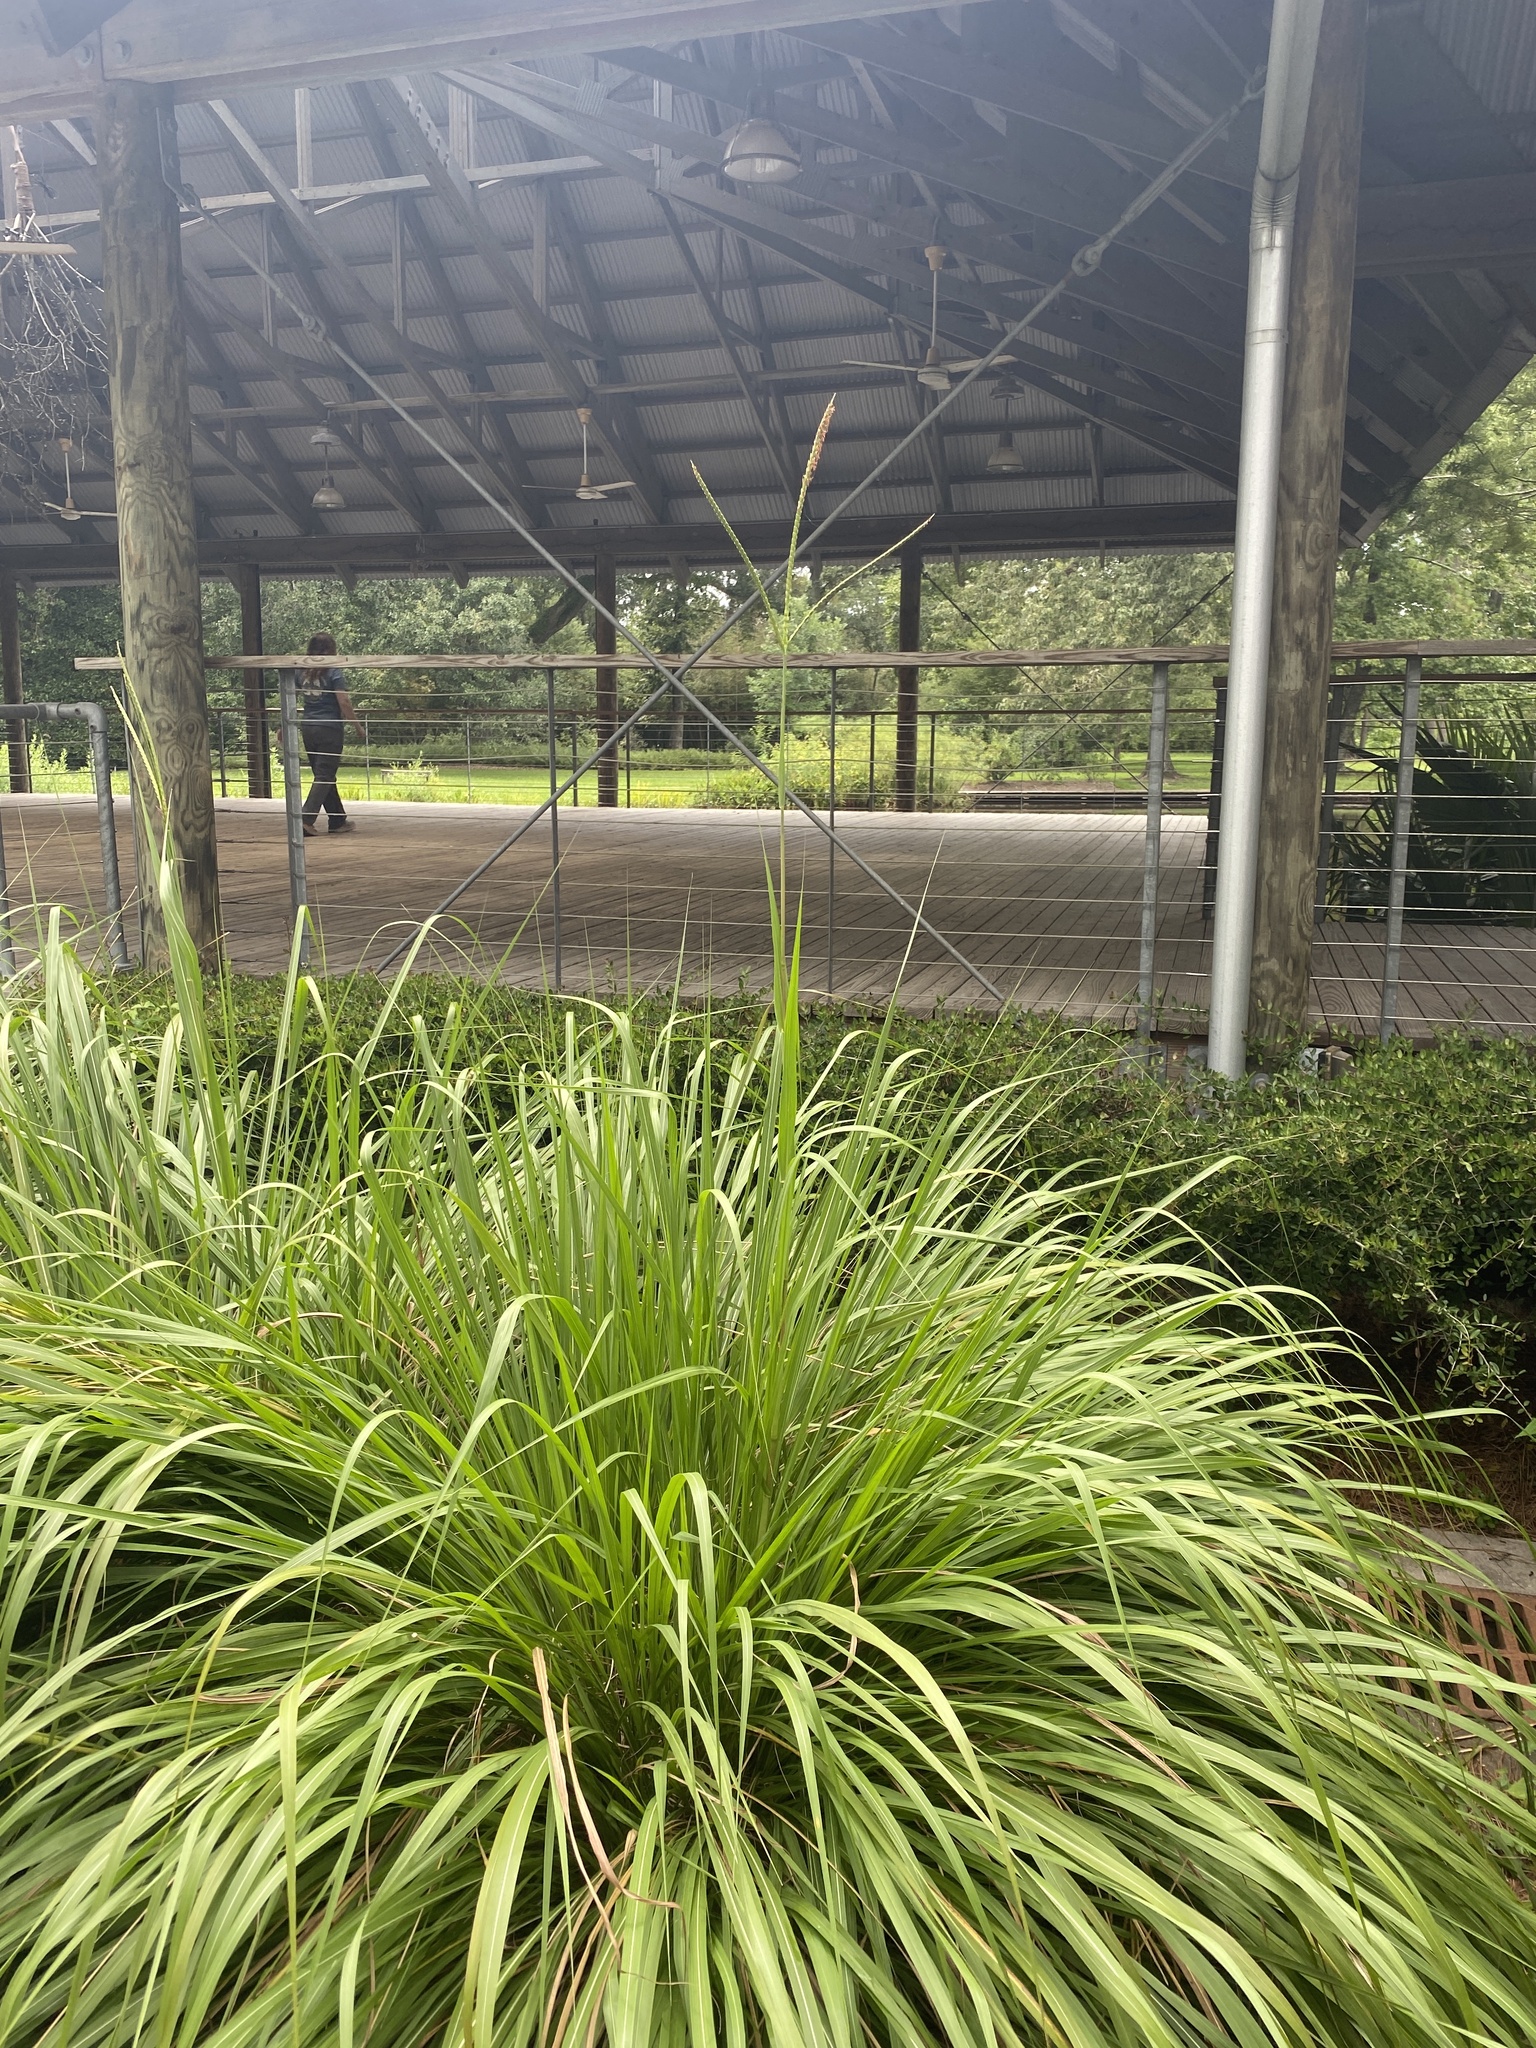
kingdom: Plantae
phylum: Tracheophyta
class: Liliopsida
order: Poales
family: Poaceae
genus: Tripsacum
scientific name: Tripsacum dactyloides
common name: Buffalo-grass
